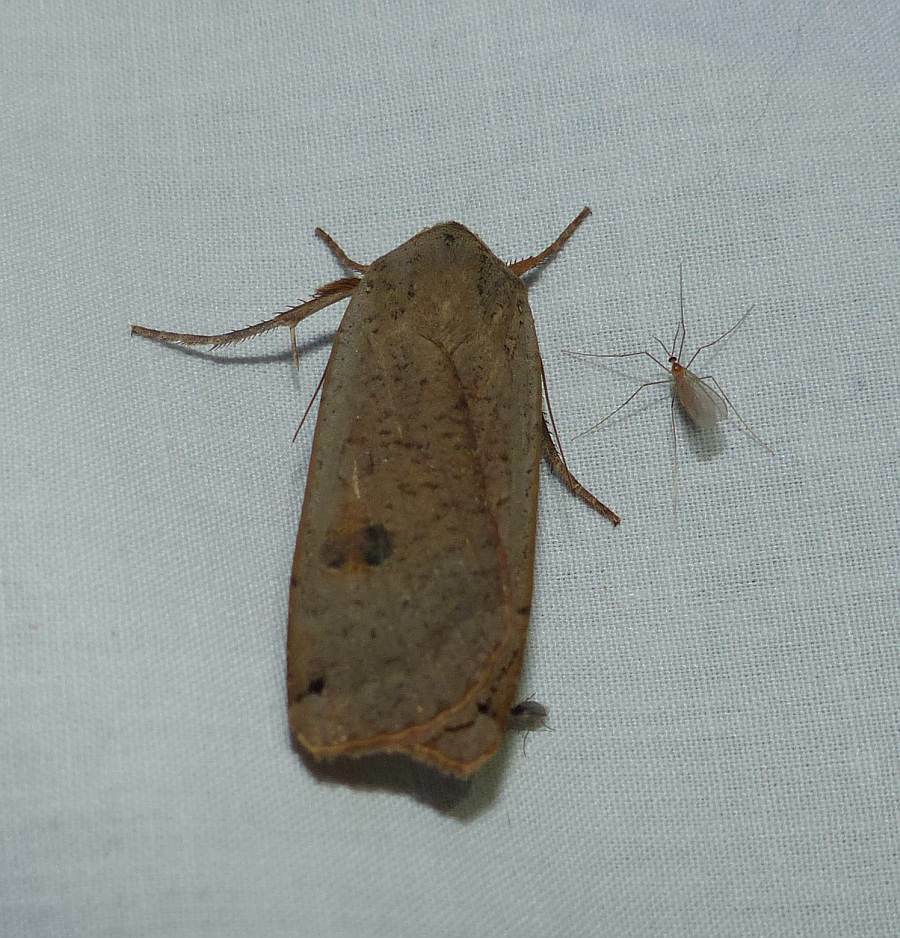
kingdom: Animalia
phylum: Arthropoda
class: Insecta
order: Lepidoptera
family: Noctuidae
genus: Noctua
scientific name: Noctua pronuba
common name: Large yellow underwing
